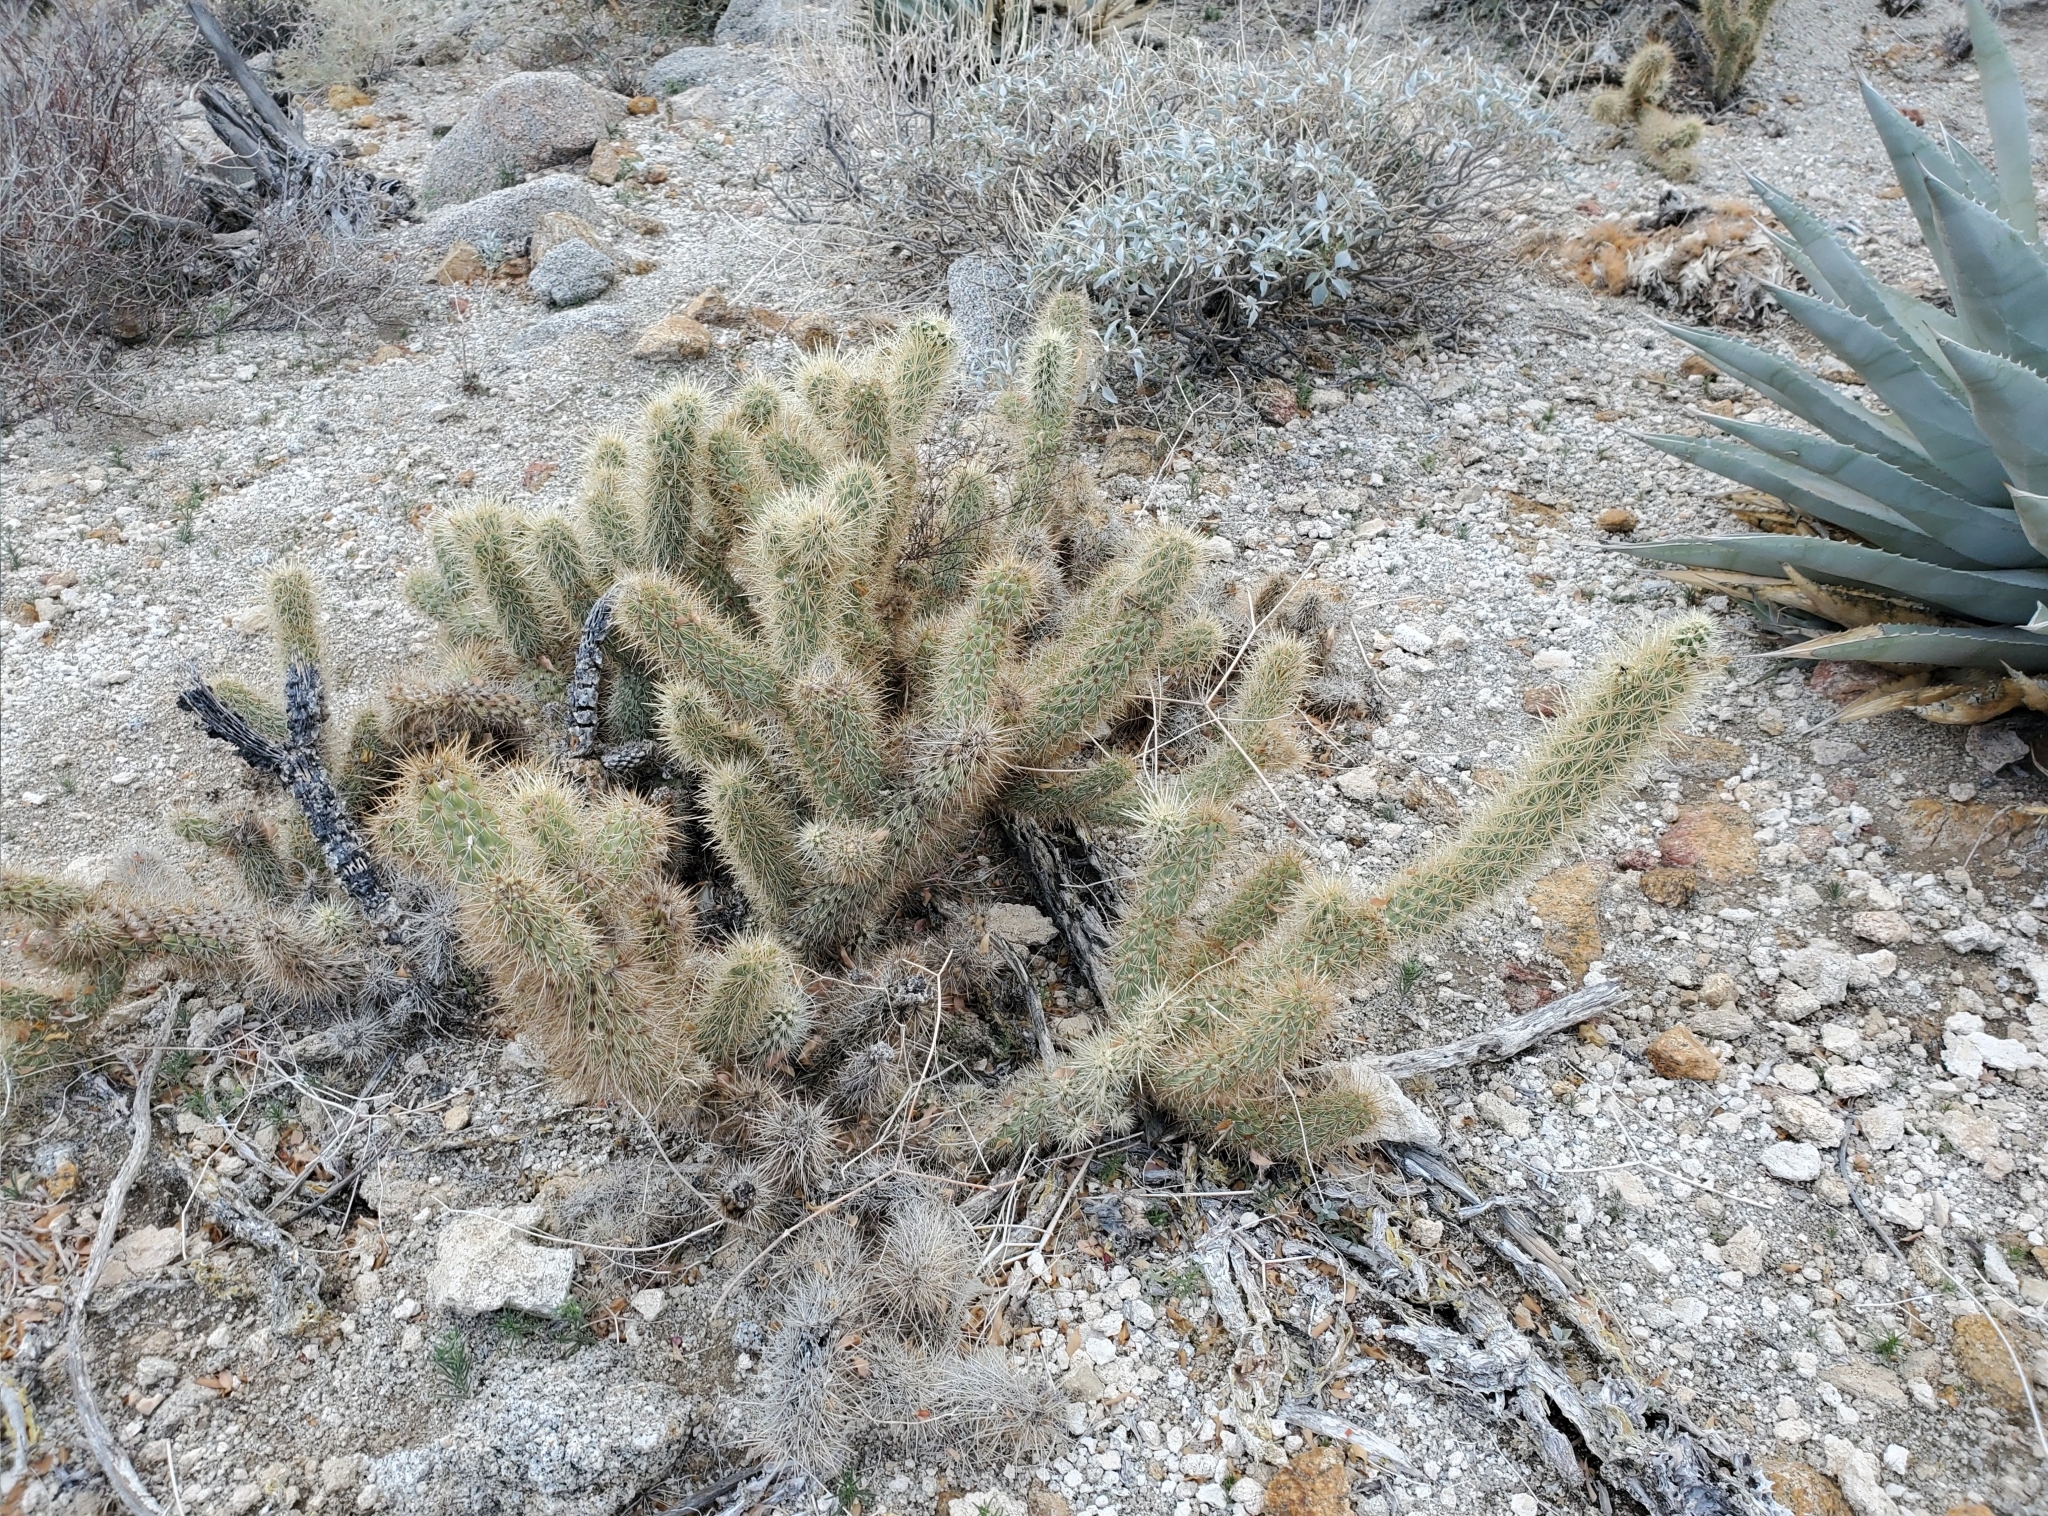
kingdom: Plantae
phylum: Tracheophyta
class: Magnoliopsida
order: Caryophyllales
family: Cactaceae
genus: Cylindropuntia
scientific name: Cylindropuntia ganderi
